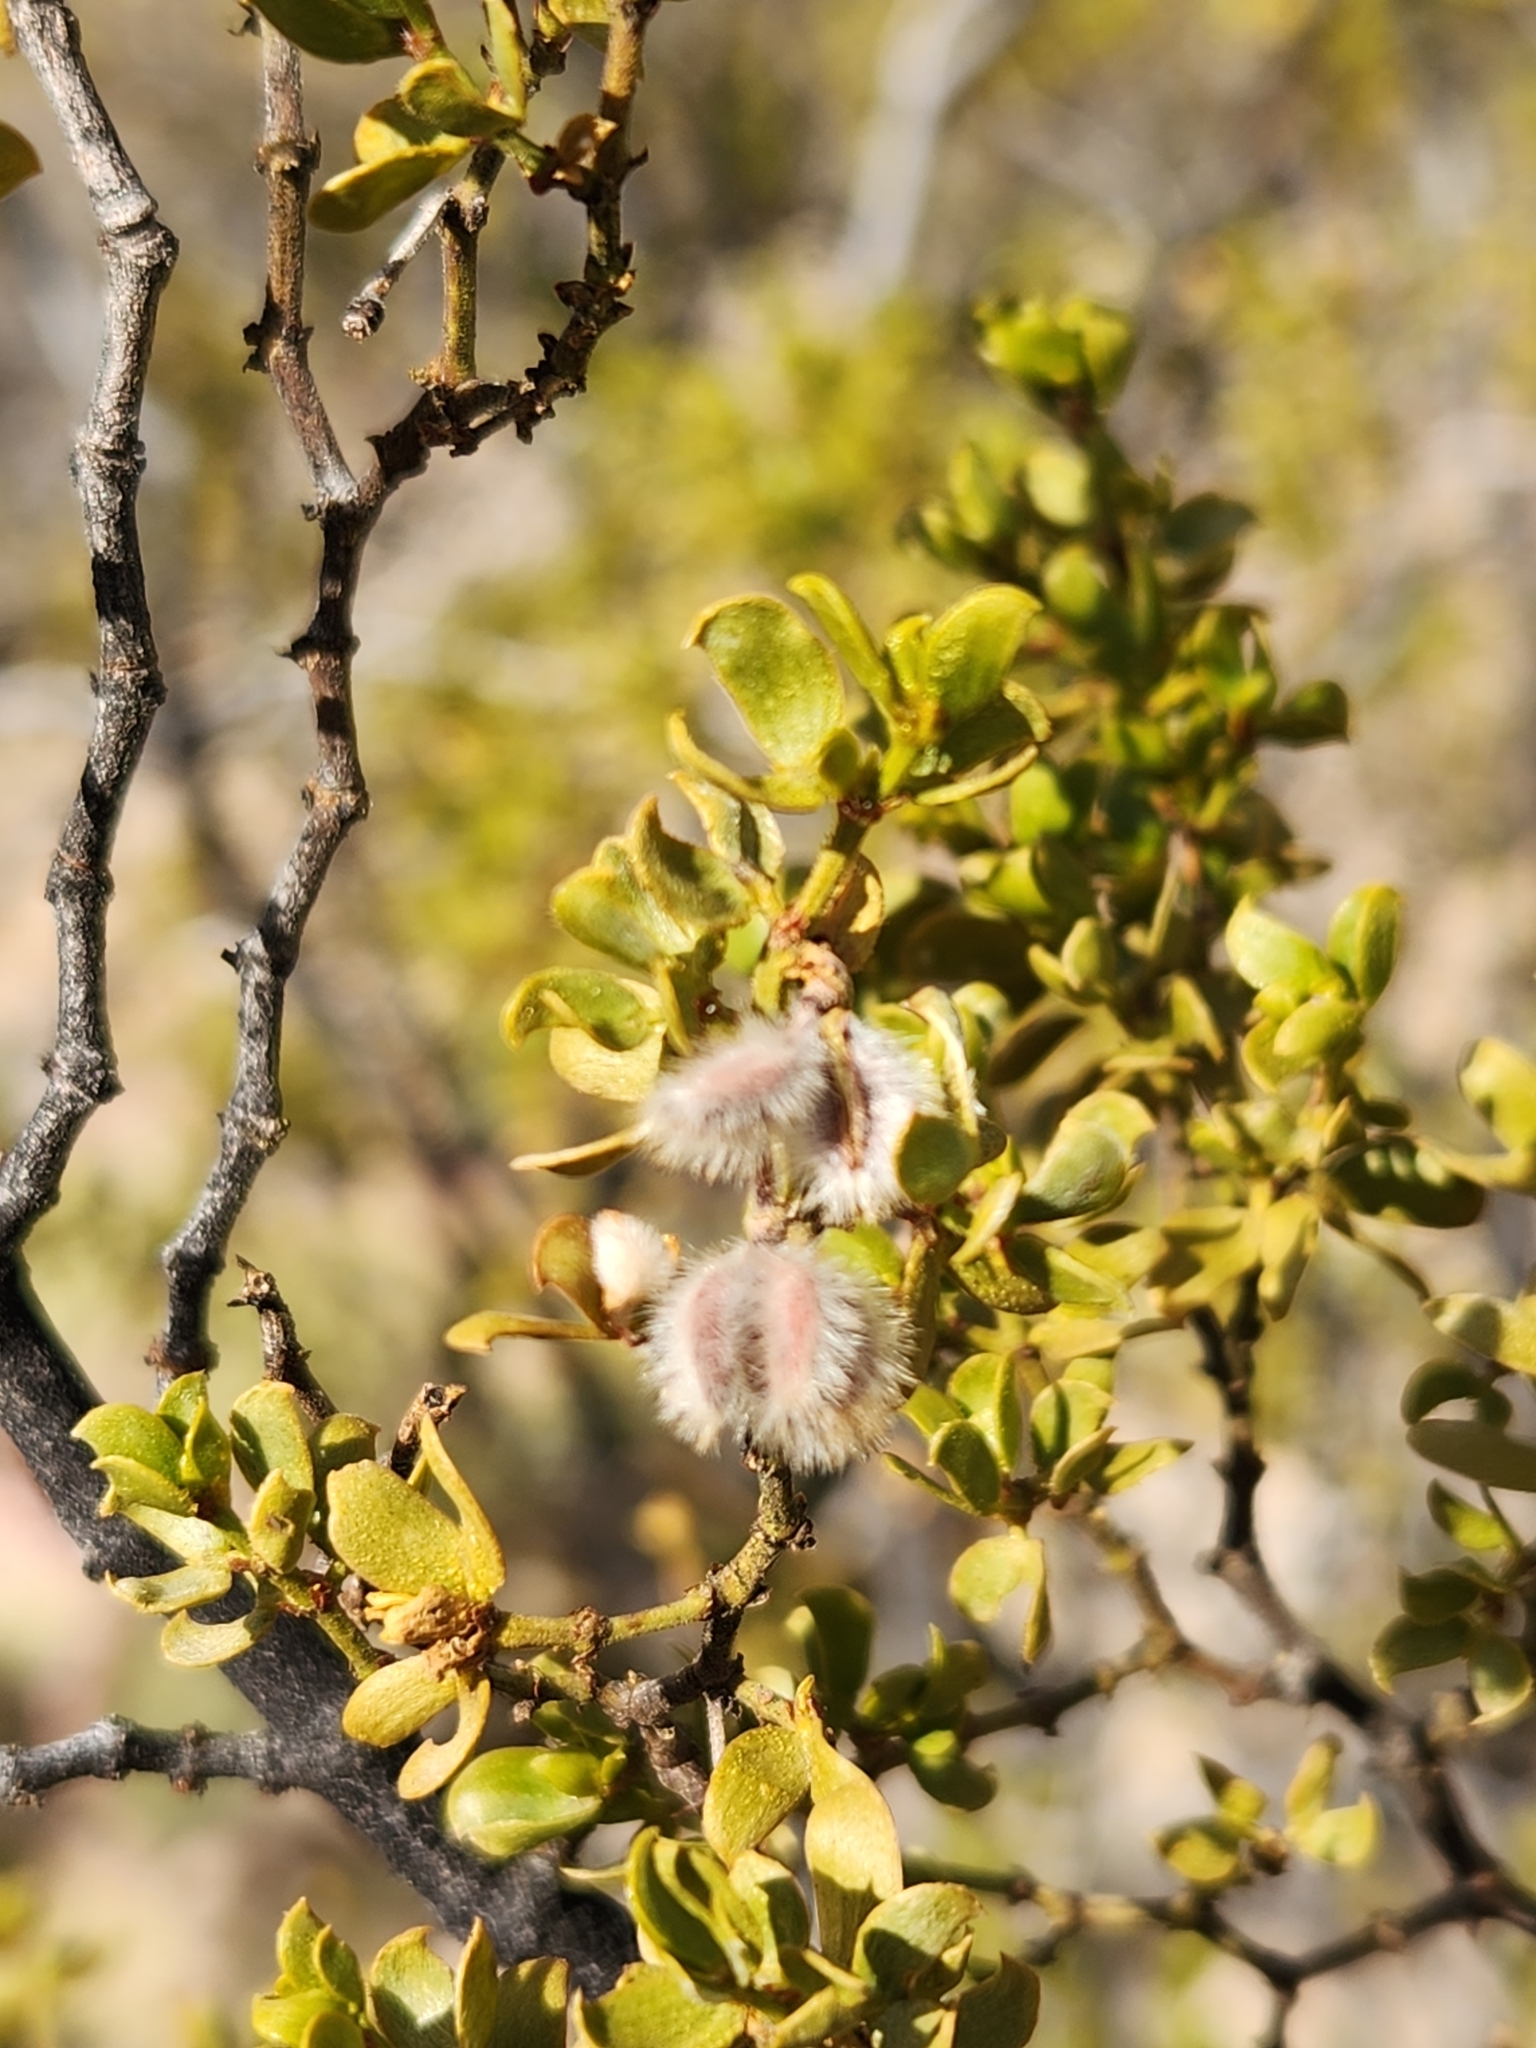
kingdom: Plantae
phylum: Tracheophyta
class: Magnoliopsida
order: Zygophyllales
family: Zygophyllaceae
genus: Larrea
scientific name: Larrea tridentata
